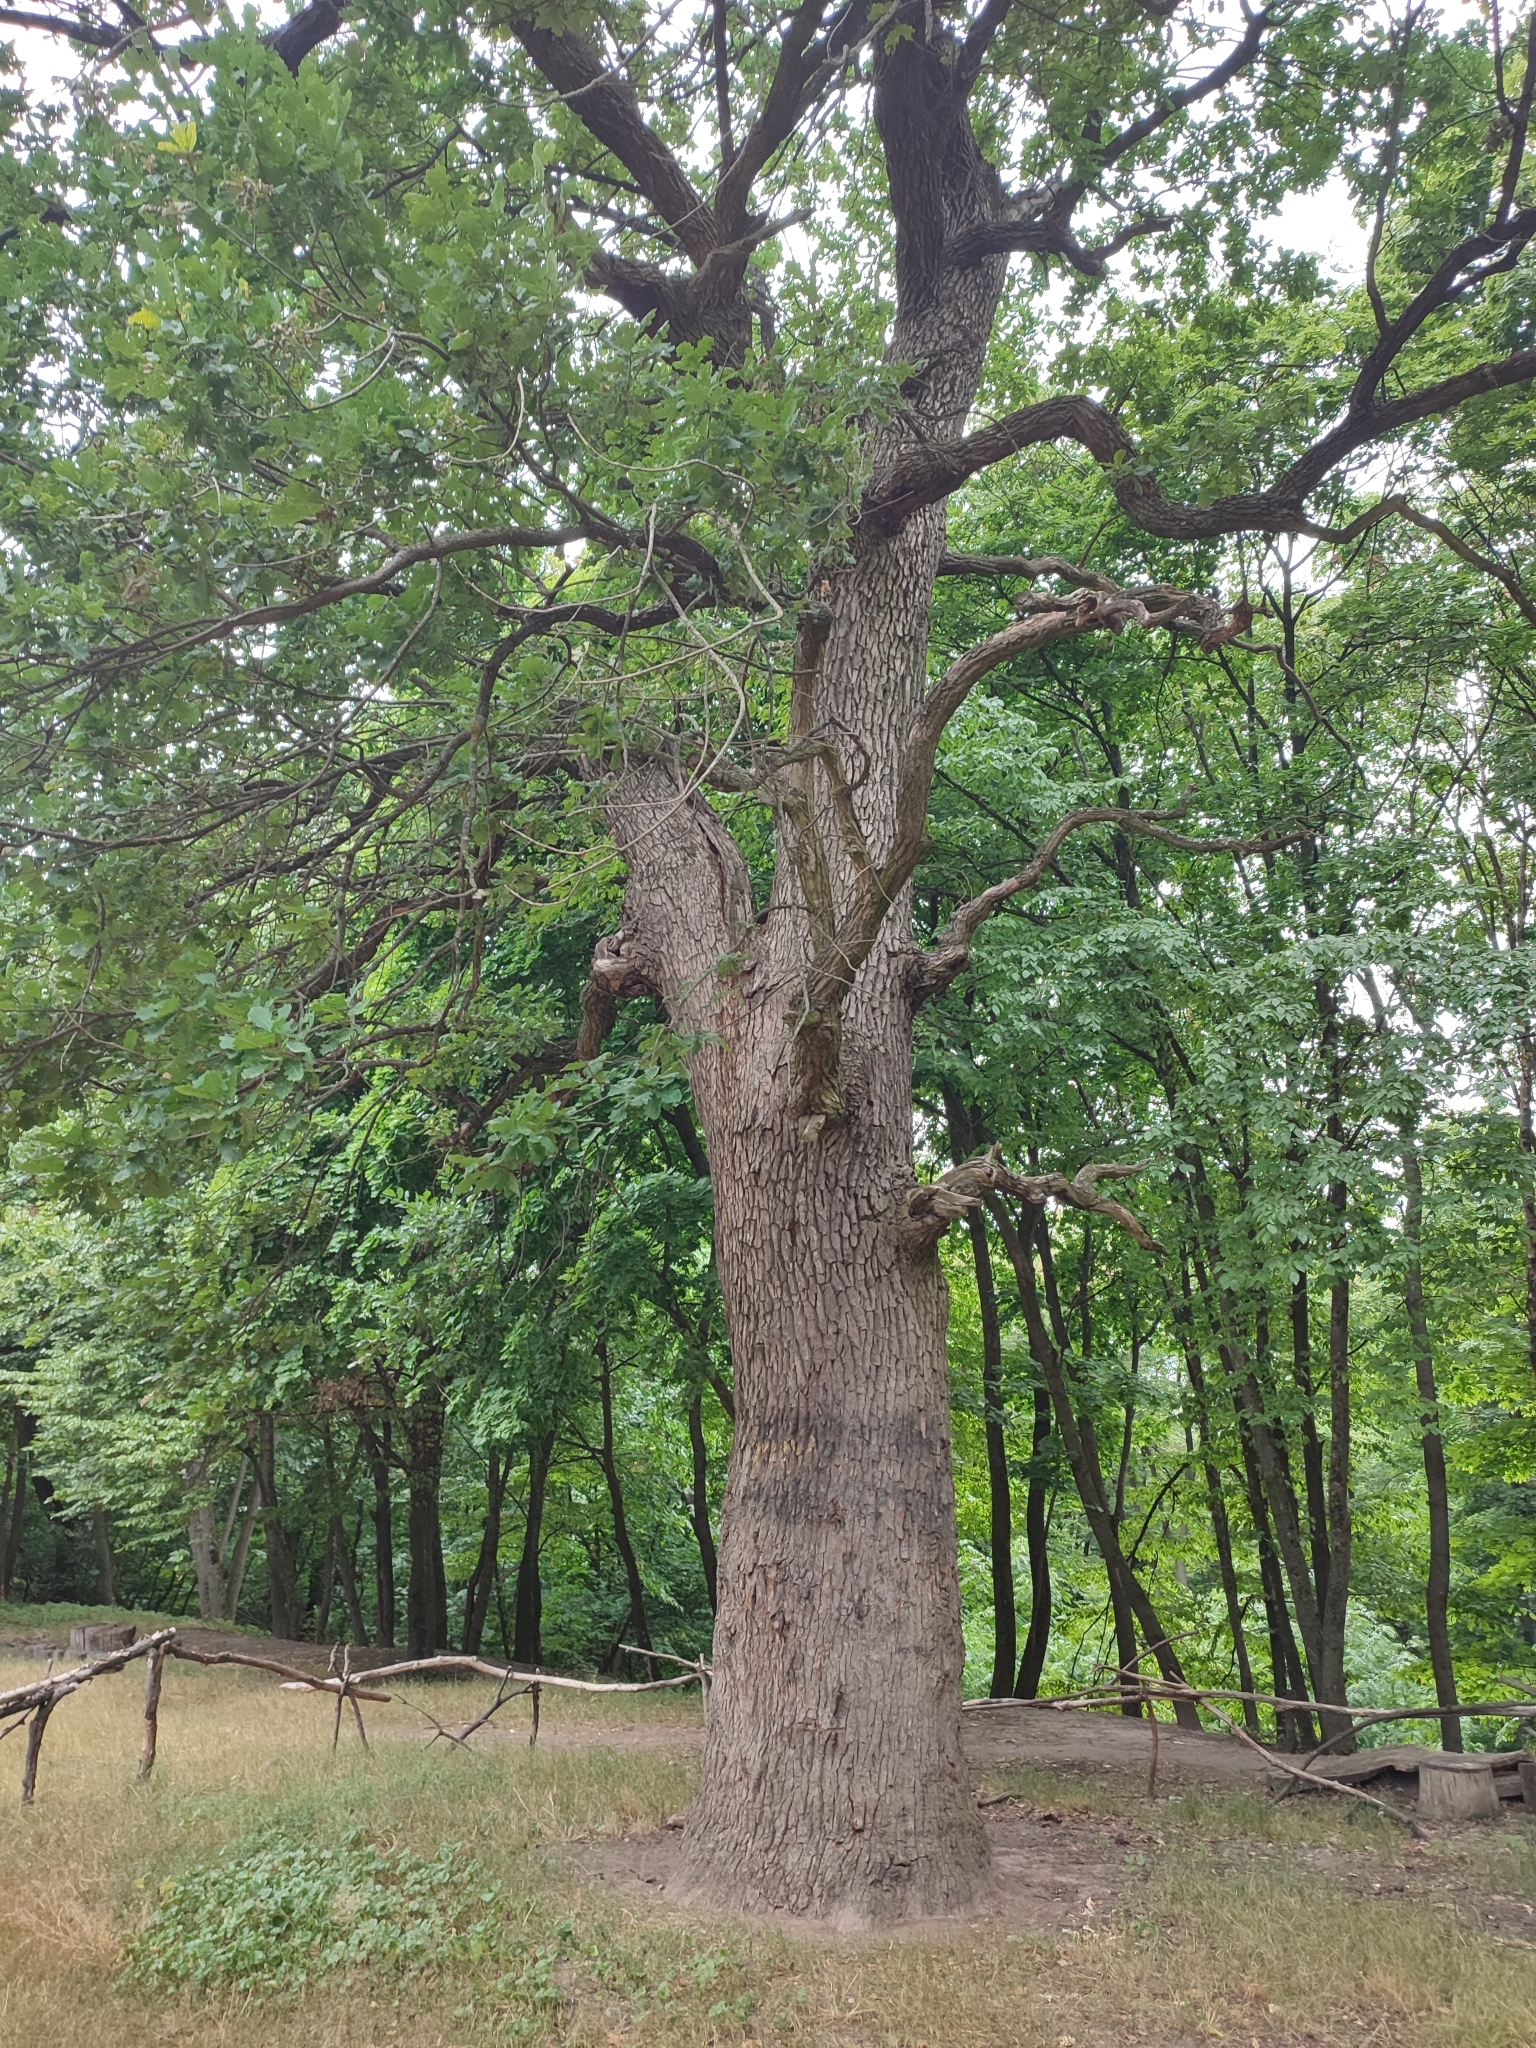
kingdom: Plantae
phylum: Tracheophyta
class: Magnoliopsida
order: Fagales
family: Fagaceae
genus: Quercus
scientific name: Quercus robur
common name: Pedunculate oak
